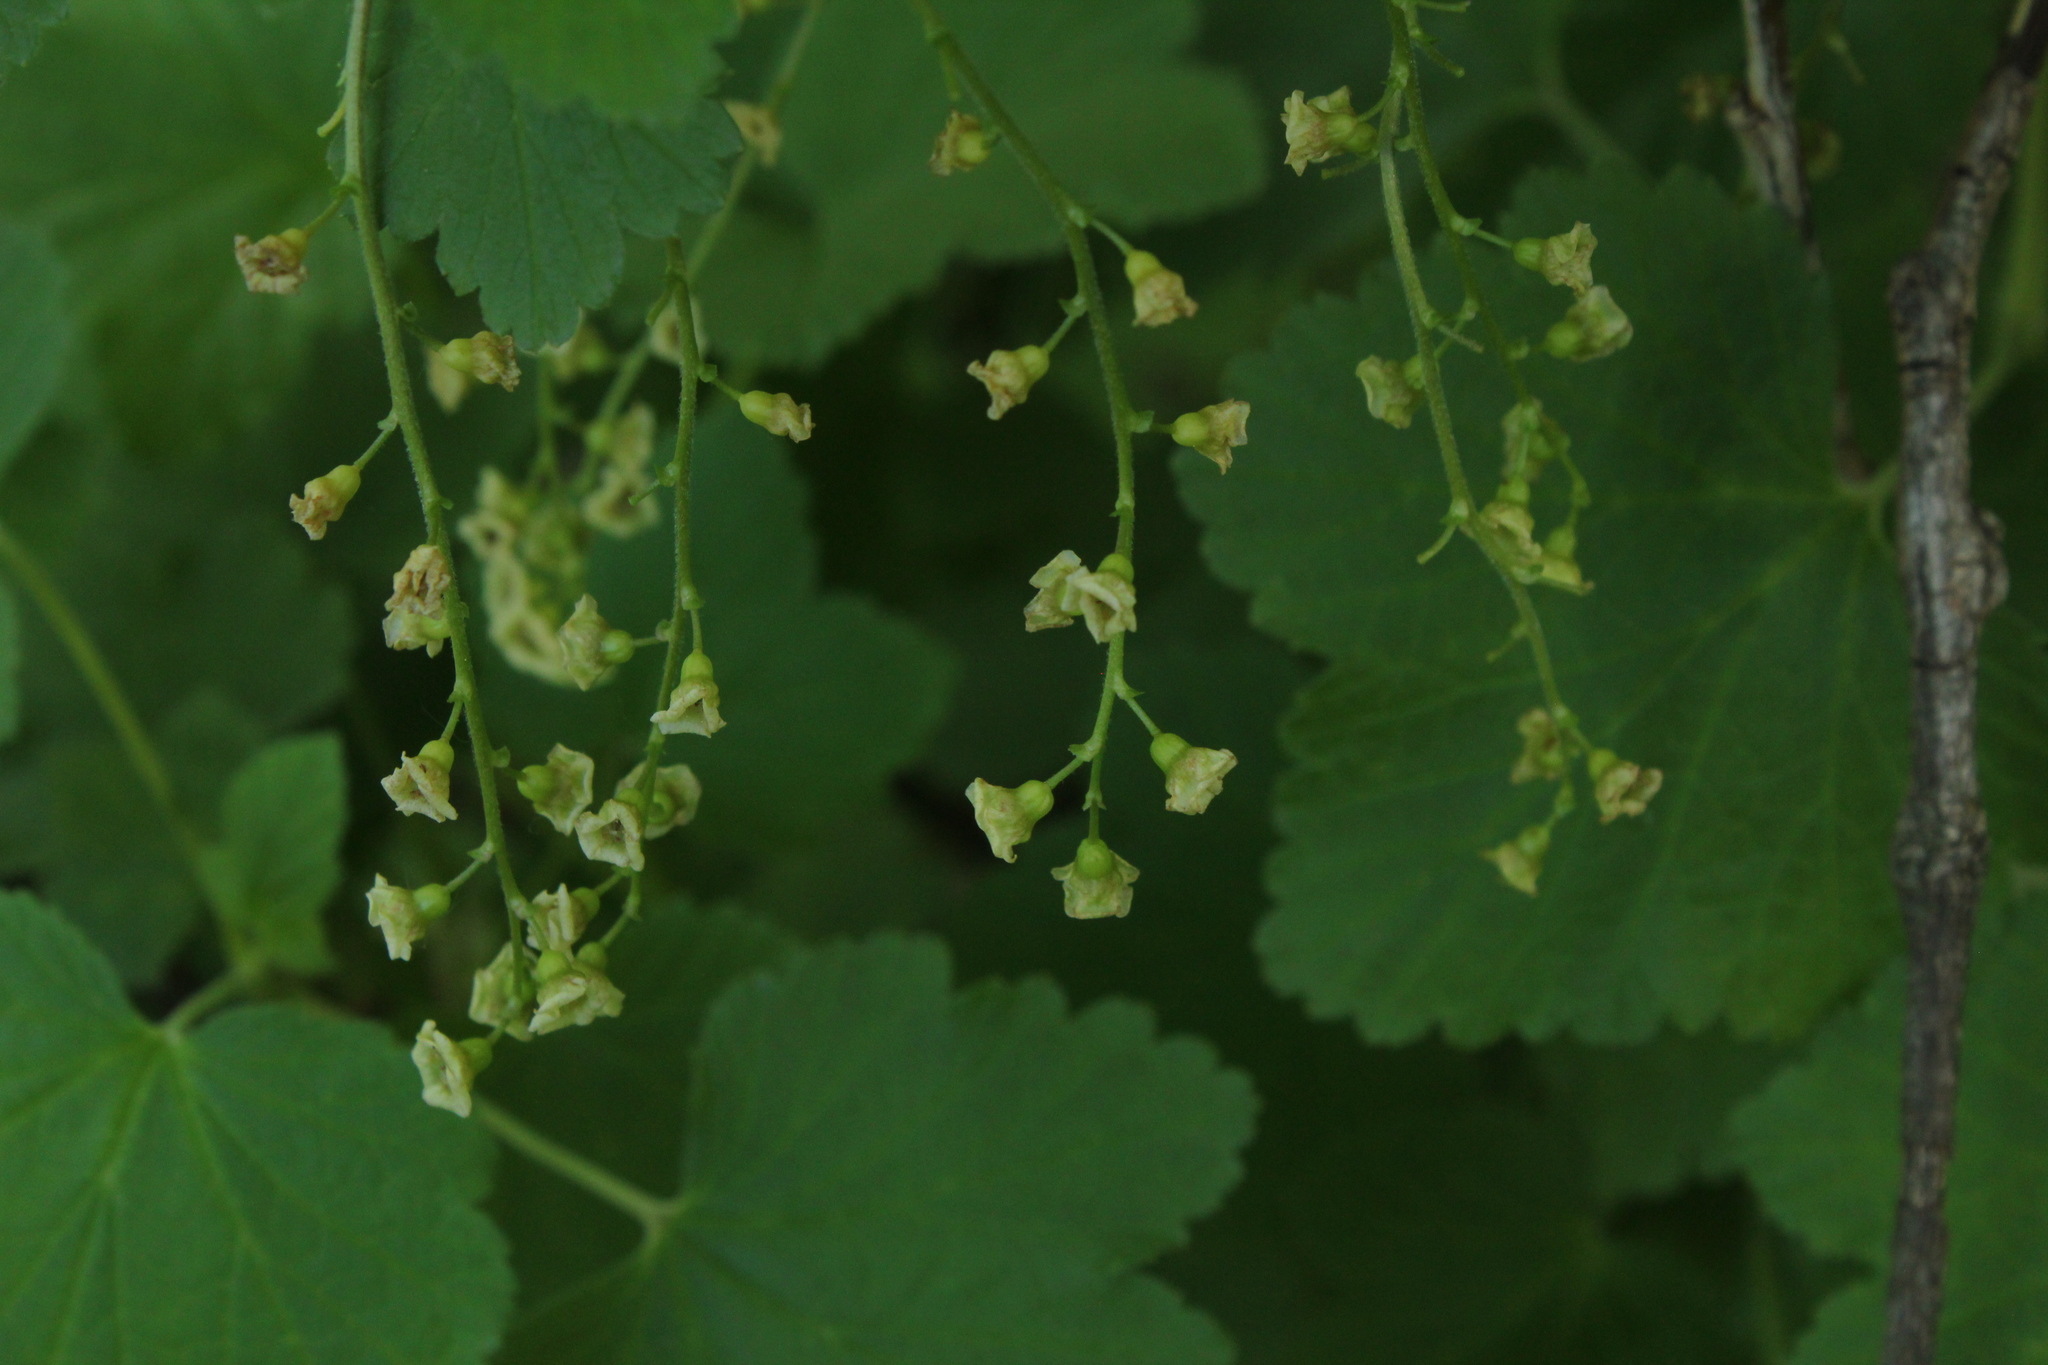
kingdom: Plantae
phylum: Tracheophyta
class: Magnoliopsida
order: Saxifragales
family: Grossulariaceae
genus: Ribes
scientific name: Ribes rubrum
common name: Red currant
